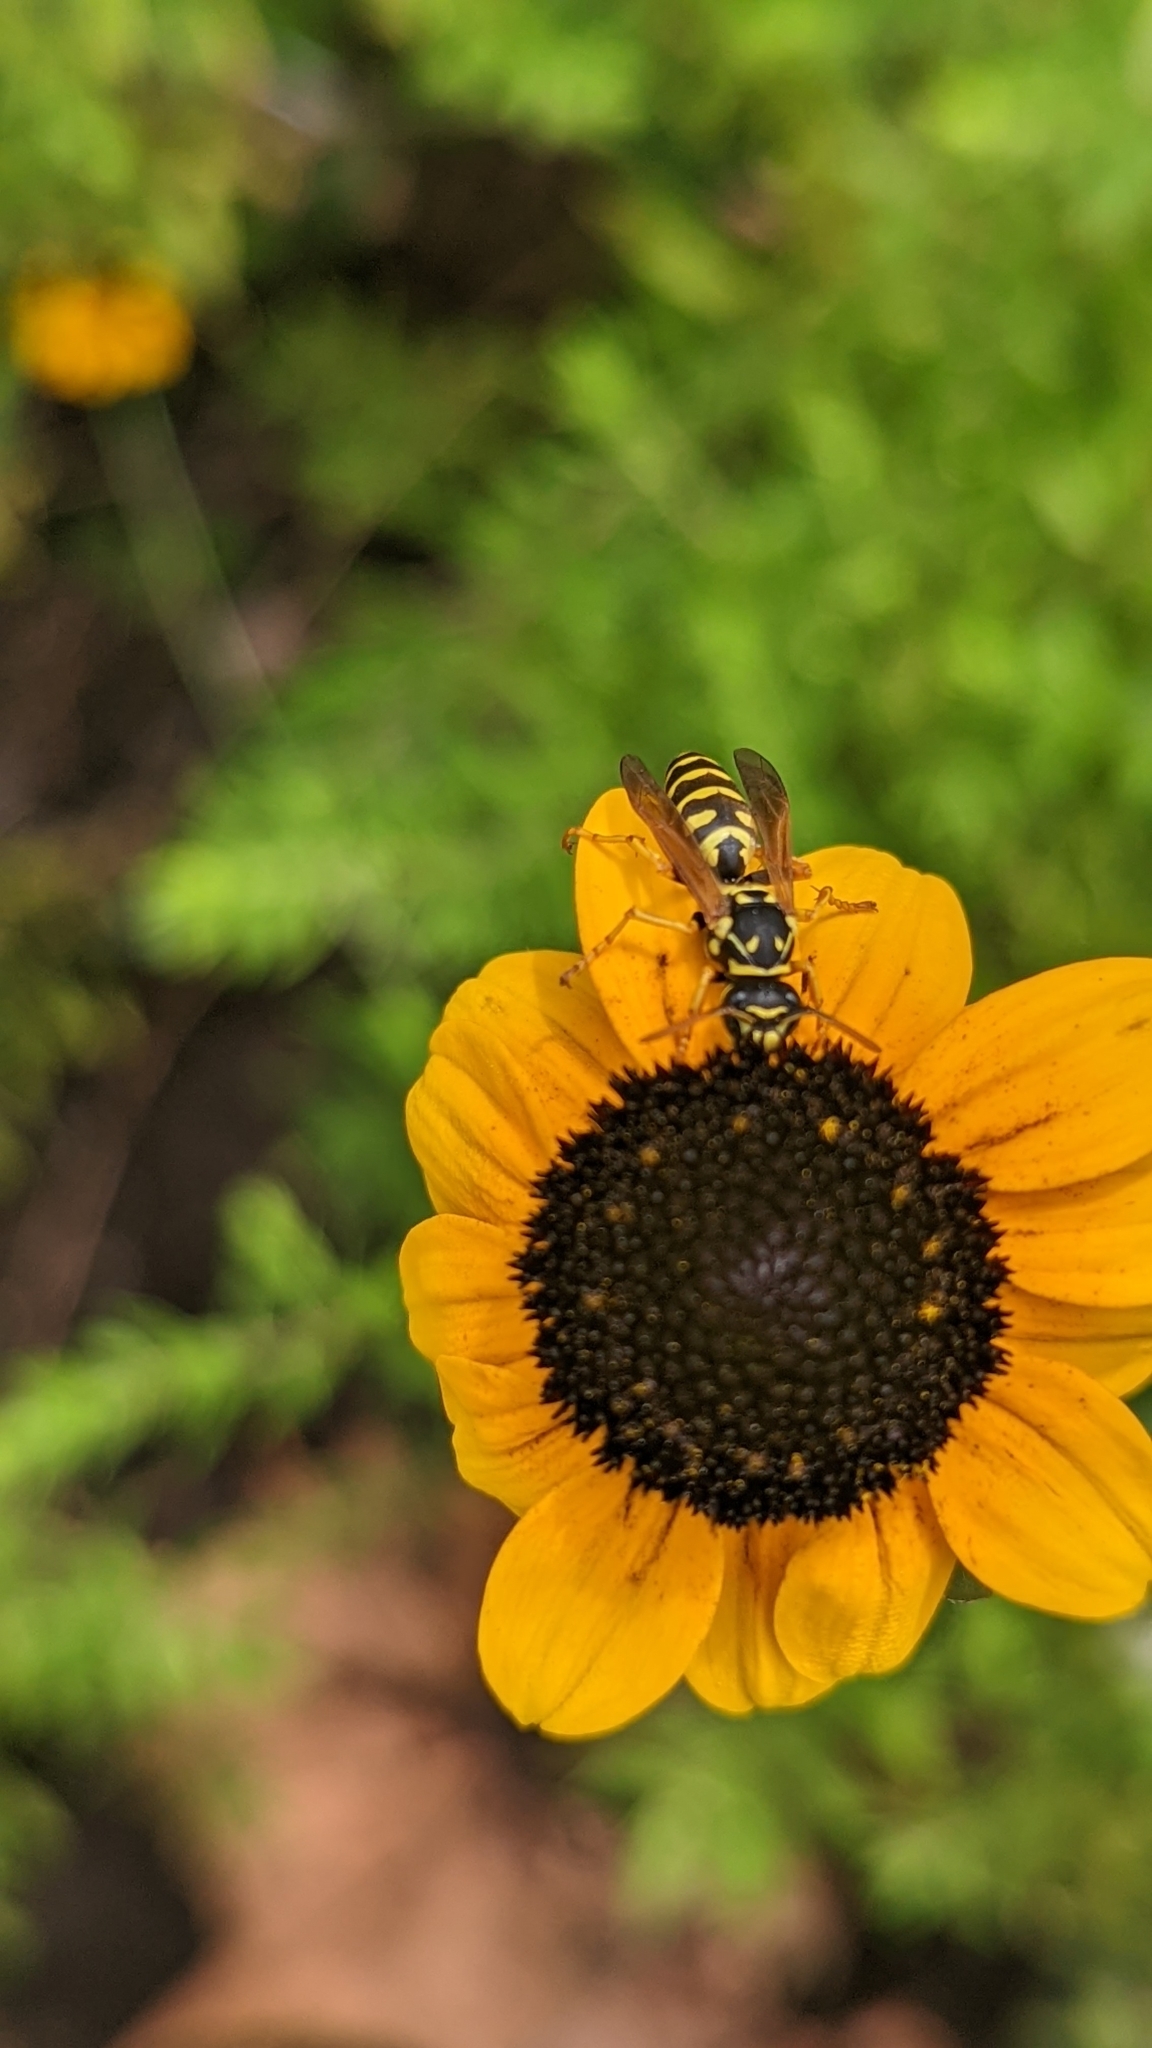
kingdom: Animalia
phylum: Arthropoda
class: Insecta
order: Hymenoptera
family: Eumenidae
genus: Polistes
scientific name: Polistes dominula
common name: Paper wasp
